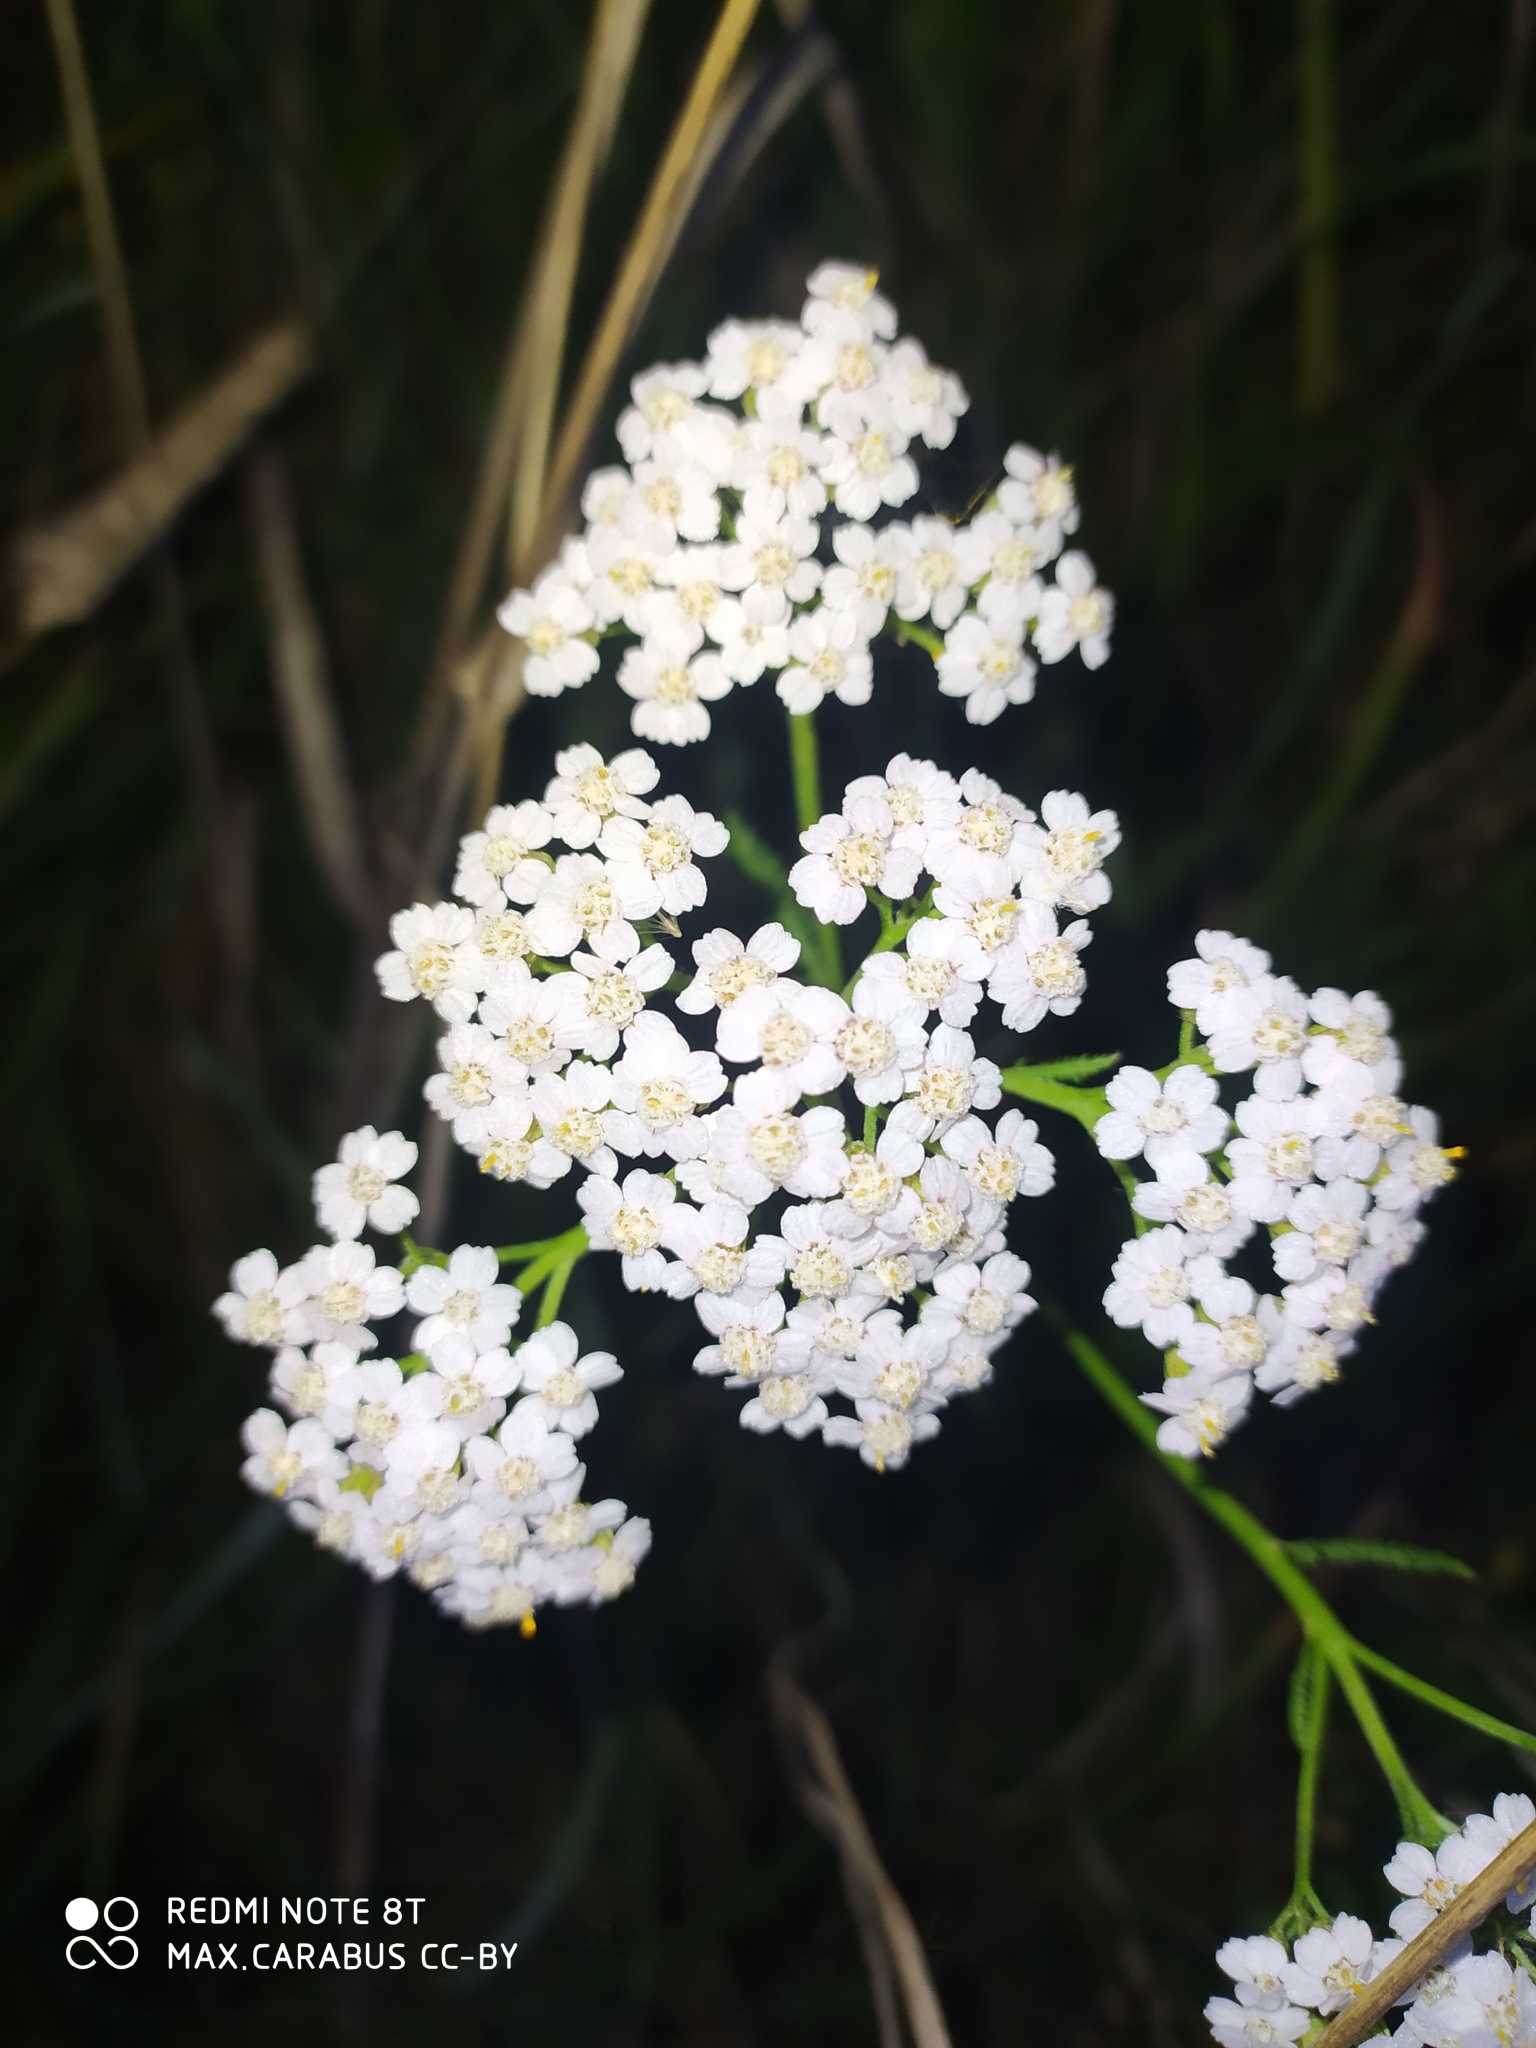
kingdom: Plantae
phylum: Tracheophyta
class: Magnoliopsida
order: Asterales
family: Asteraceae
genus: Achillea
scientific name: Achillea millefolium
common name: Yarrow
